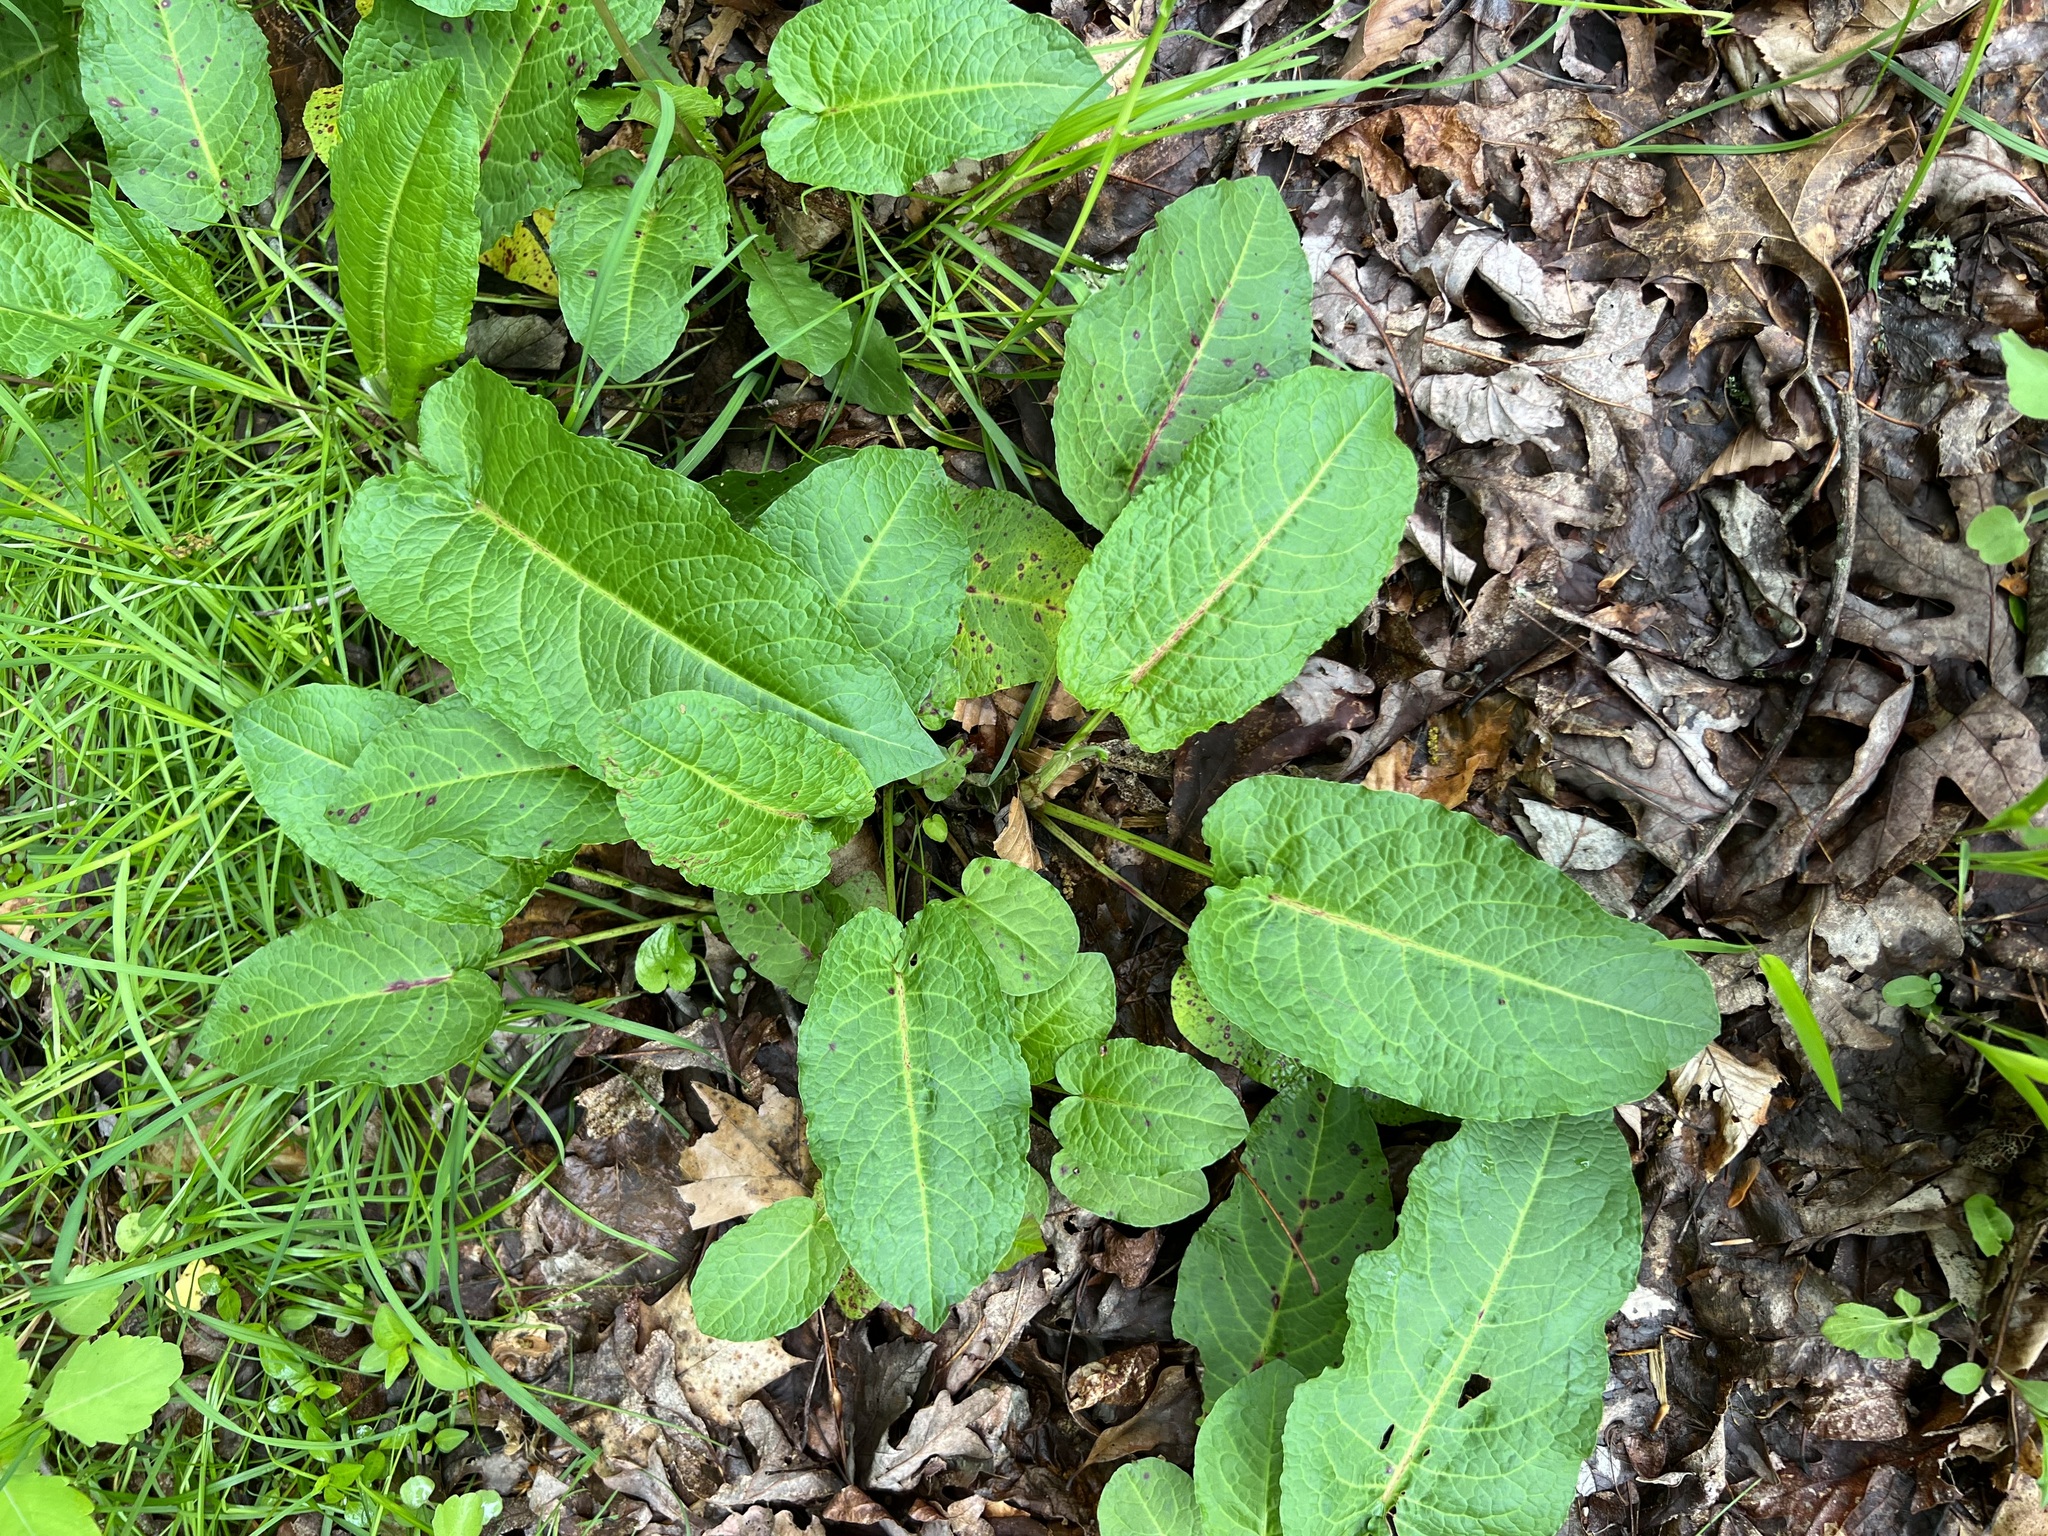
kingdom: Plantae
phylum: Tracheophyta
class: Magnoliopsida
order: Caryophyllales
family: Polygonaceae
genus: Rumex
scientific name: Rumex obtusifolius
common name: Bitter dock
